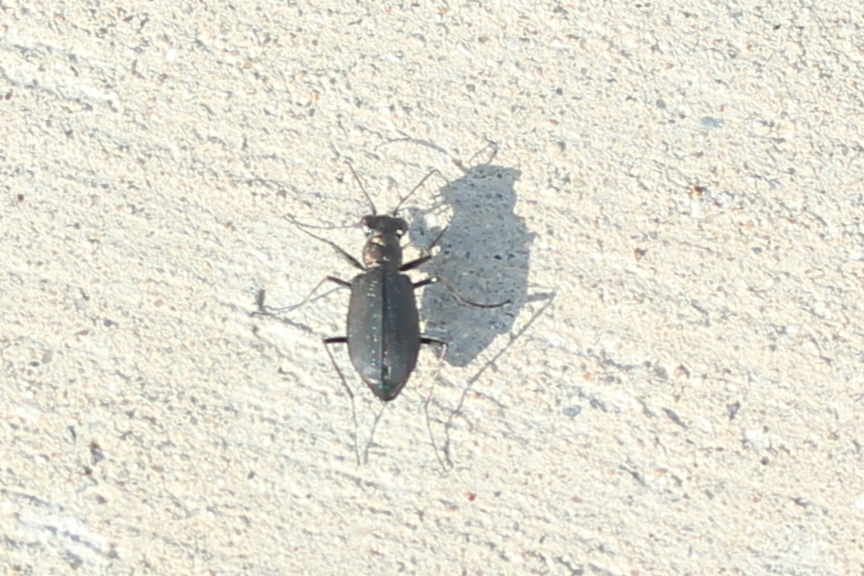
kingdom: Animalia
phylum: Arthropoda
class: Insecta
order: Coleoptera
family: Carabidae
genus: Cicindela
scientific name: Cicindela punctulata
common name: Punctured tiger beetle
